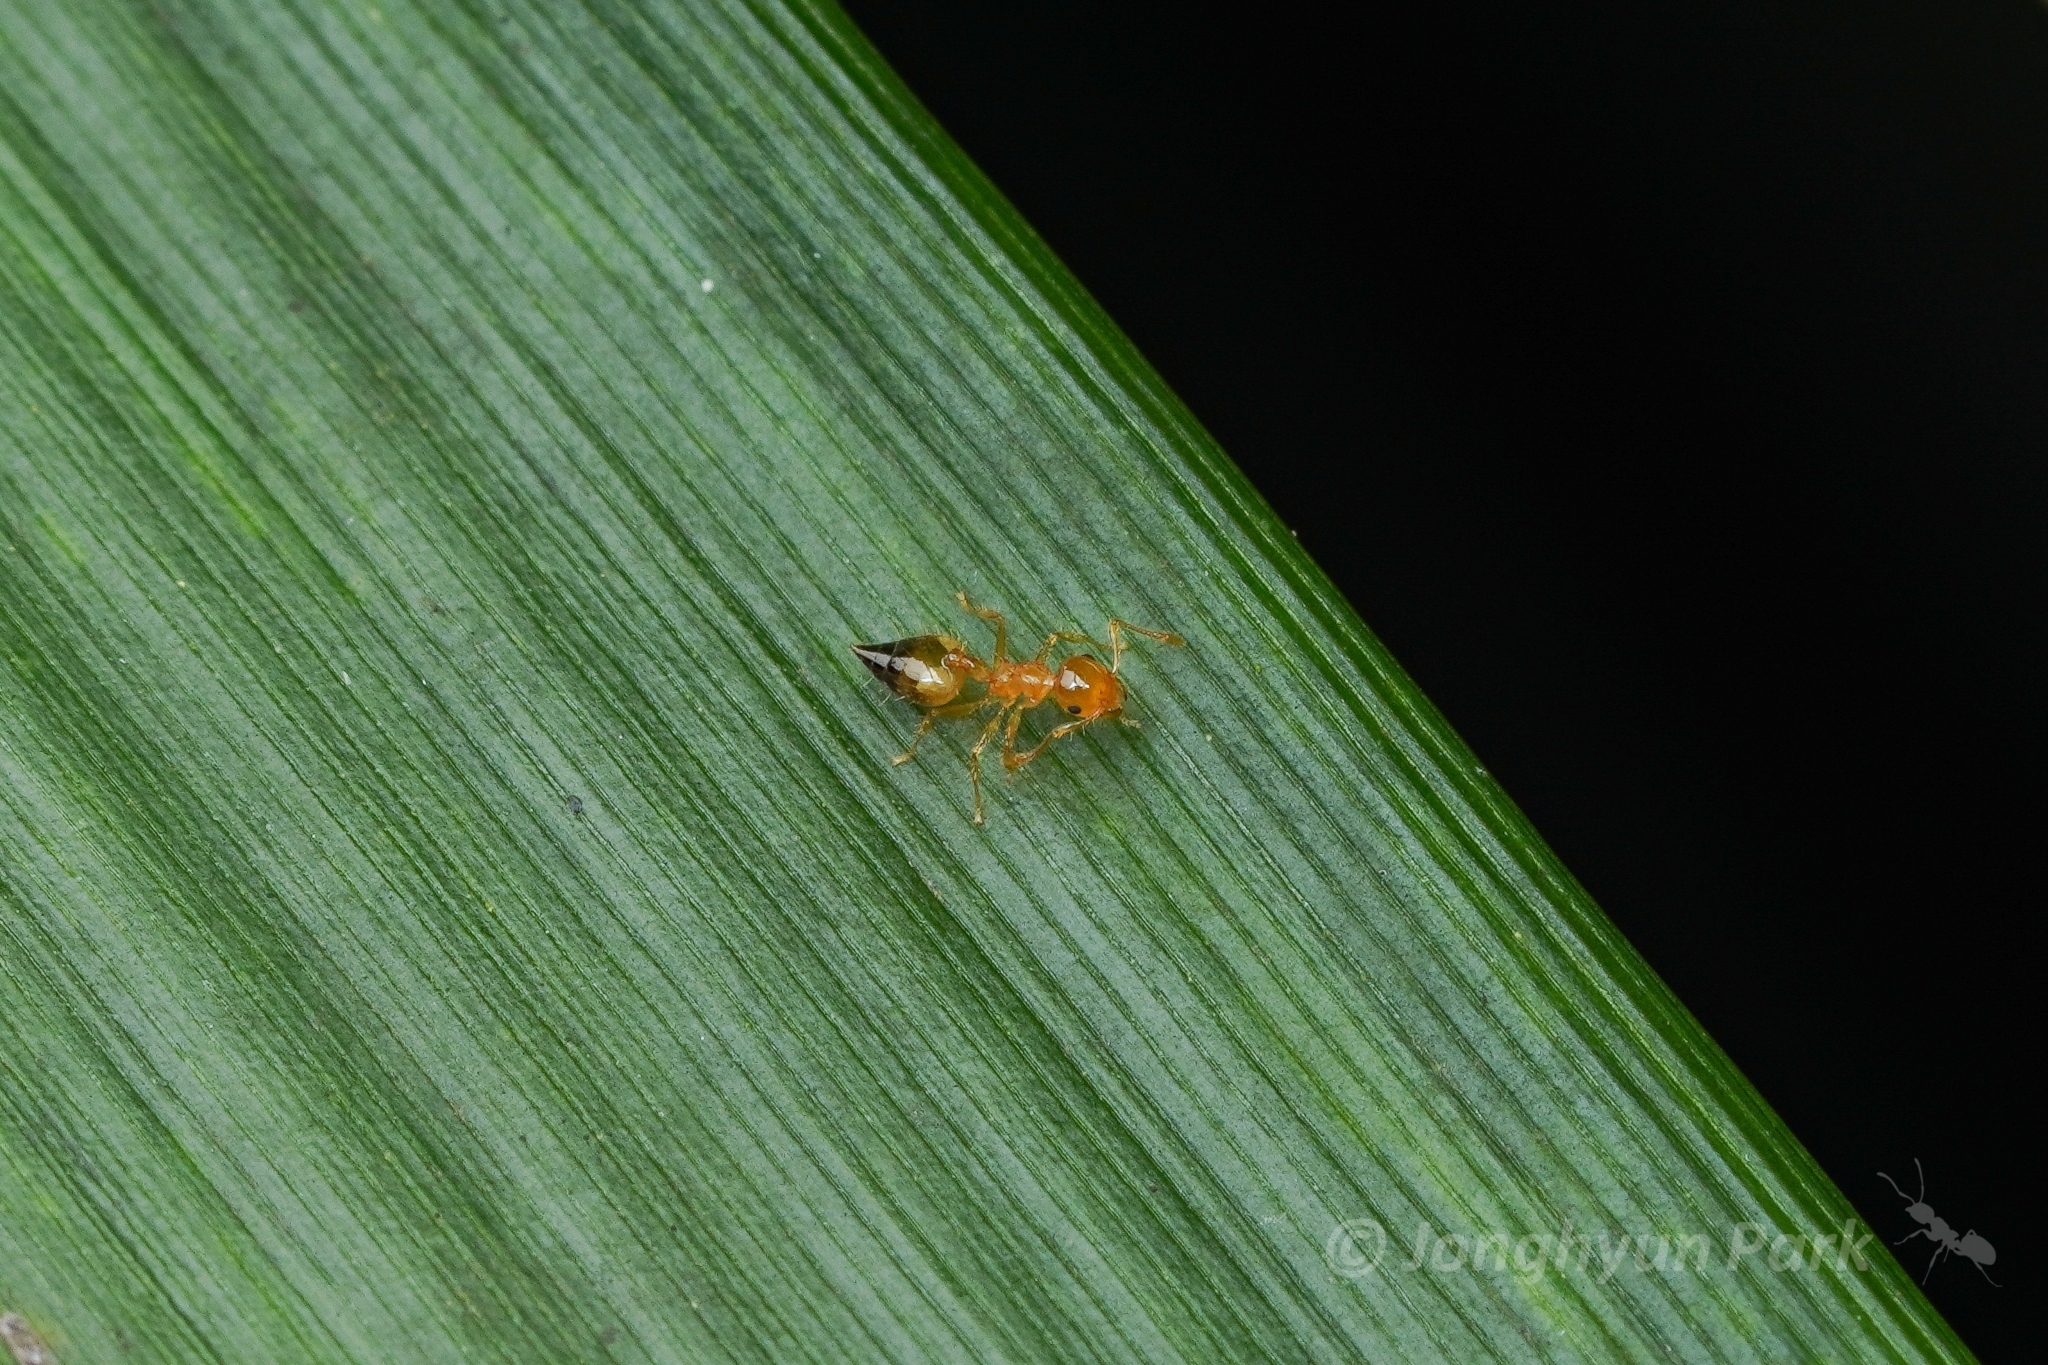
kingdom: Animalia
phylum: Arthropoda
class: Insecta
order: Hymenoptera
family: Formicidae
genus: Crematogaster
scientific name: Crematogaster quadriruga
